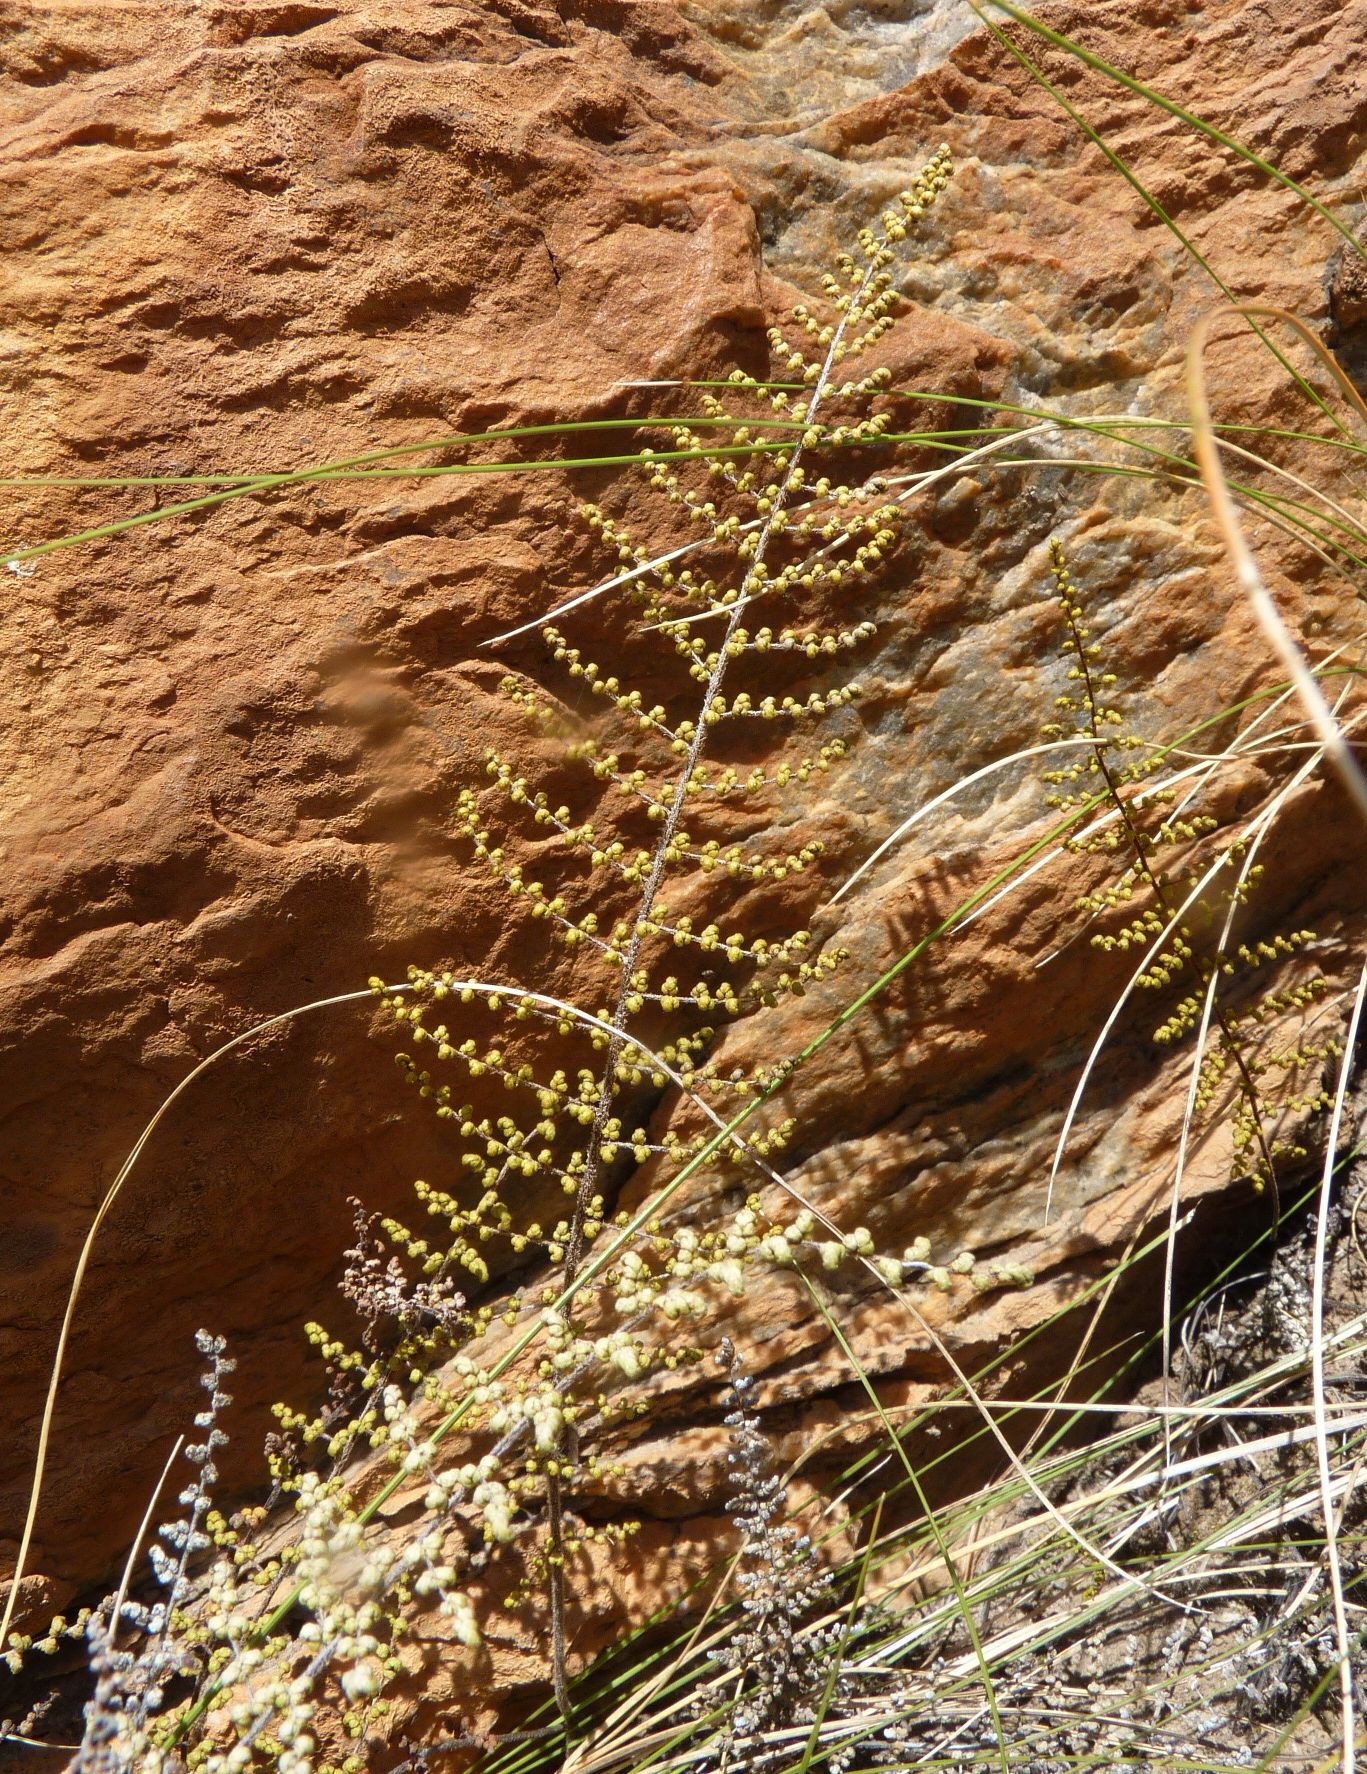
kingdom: Plantae
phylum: Tracheophyta
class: Polypodiopsida
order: Polypodiales
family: Pteridaceae
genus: Cheilanthes
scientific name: Cheilanthes hirta
